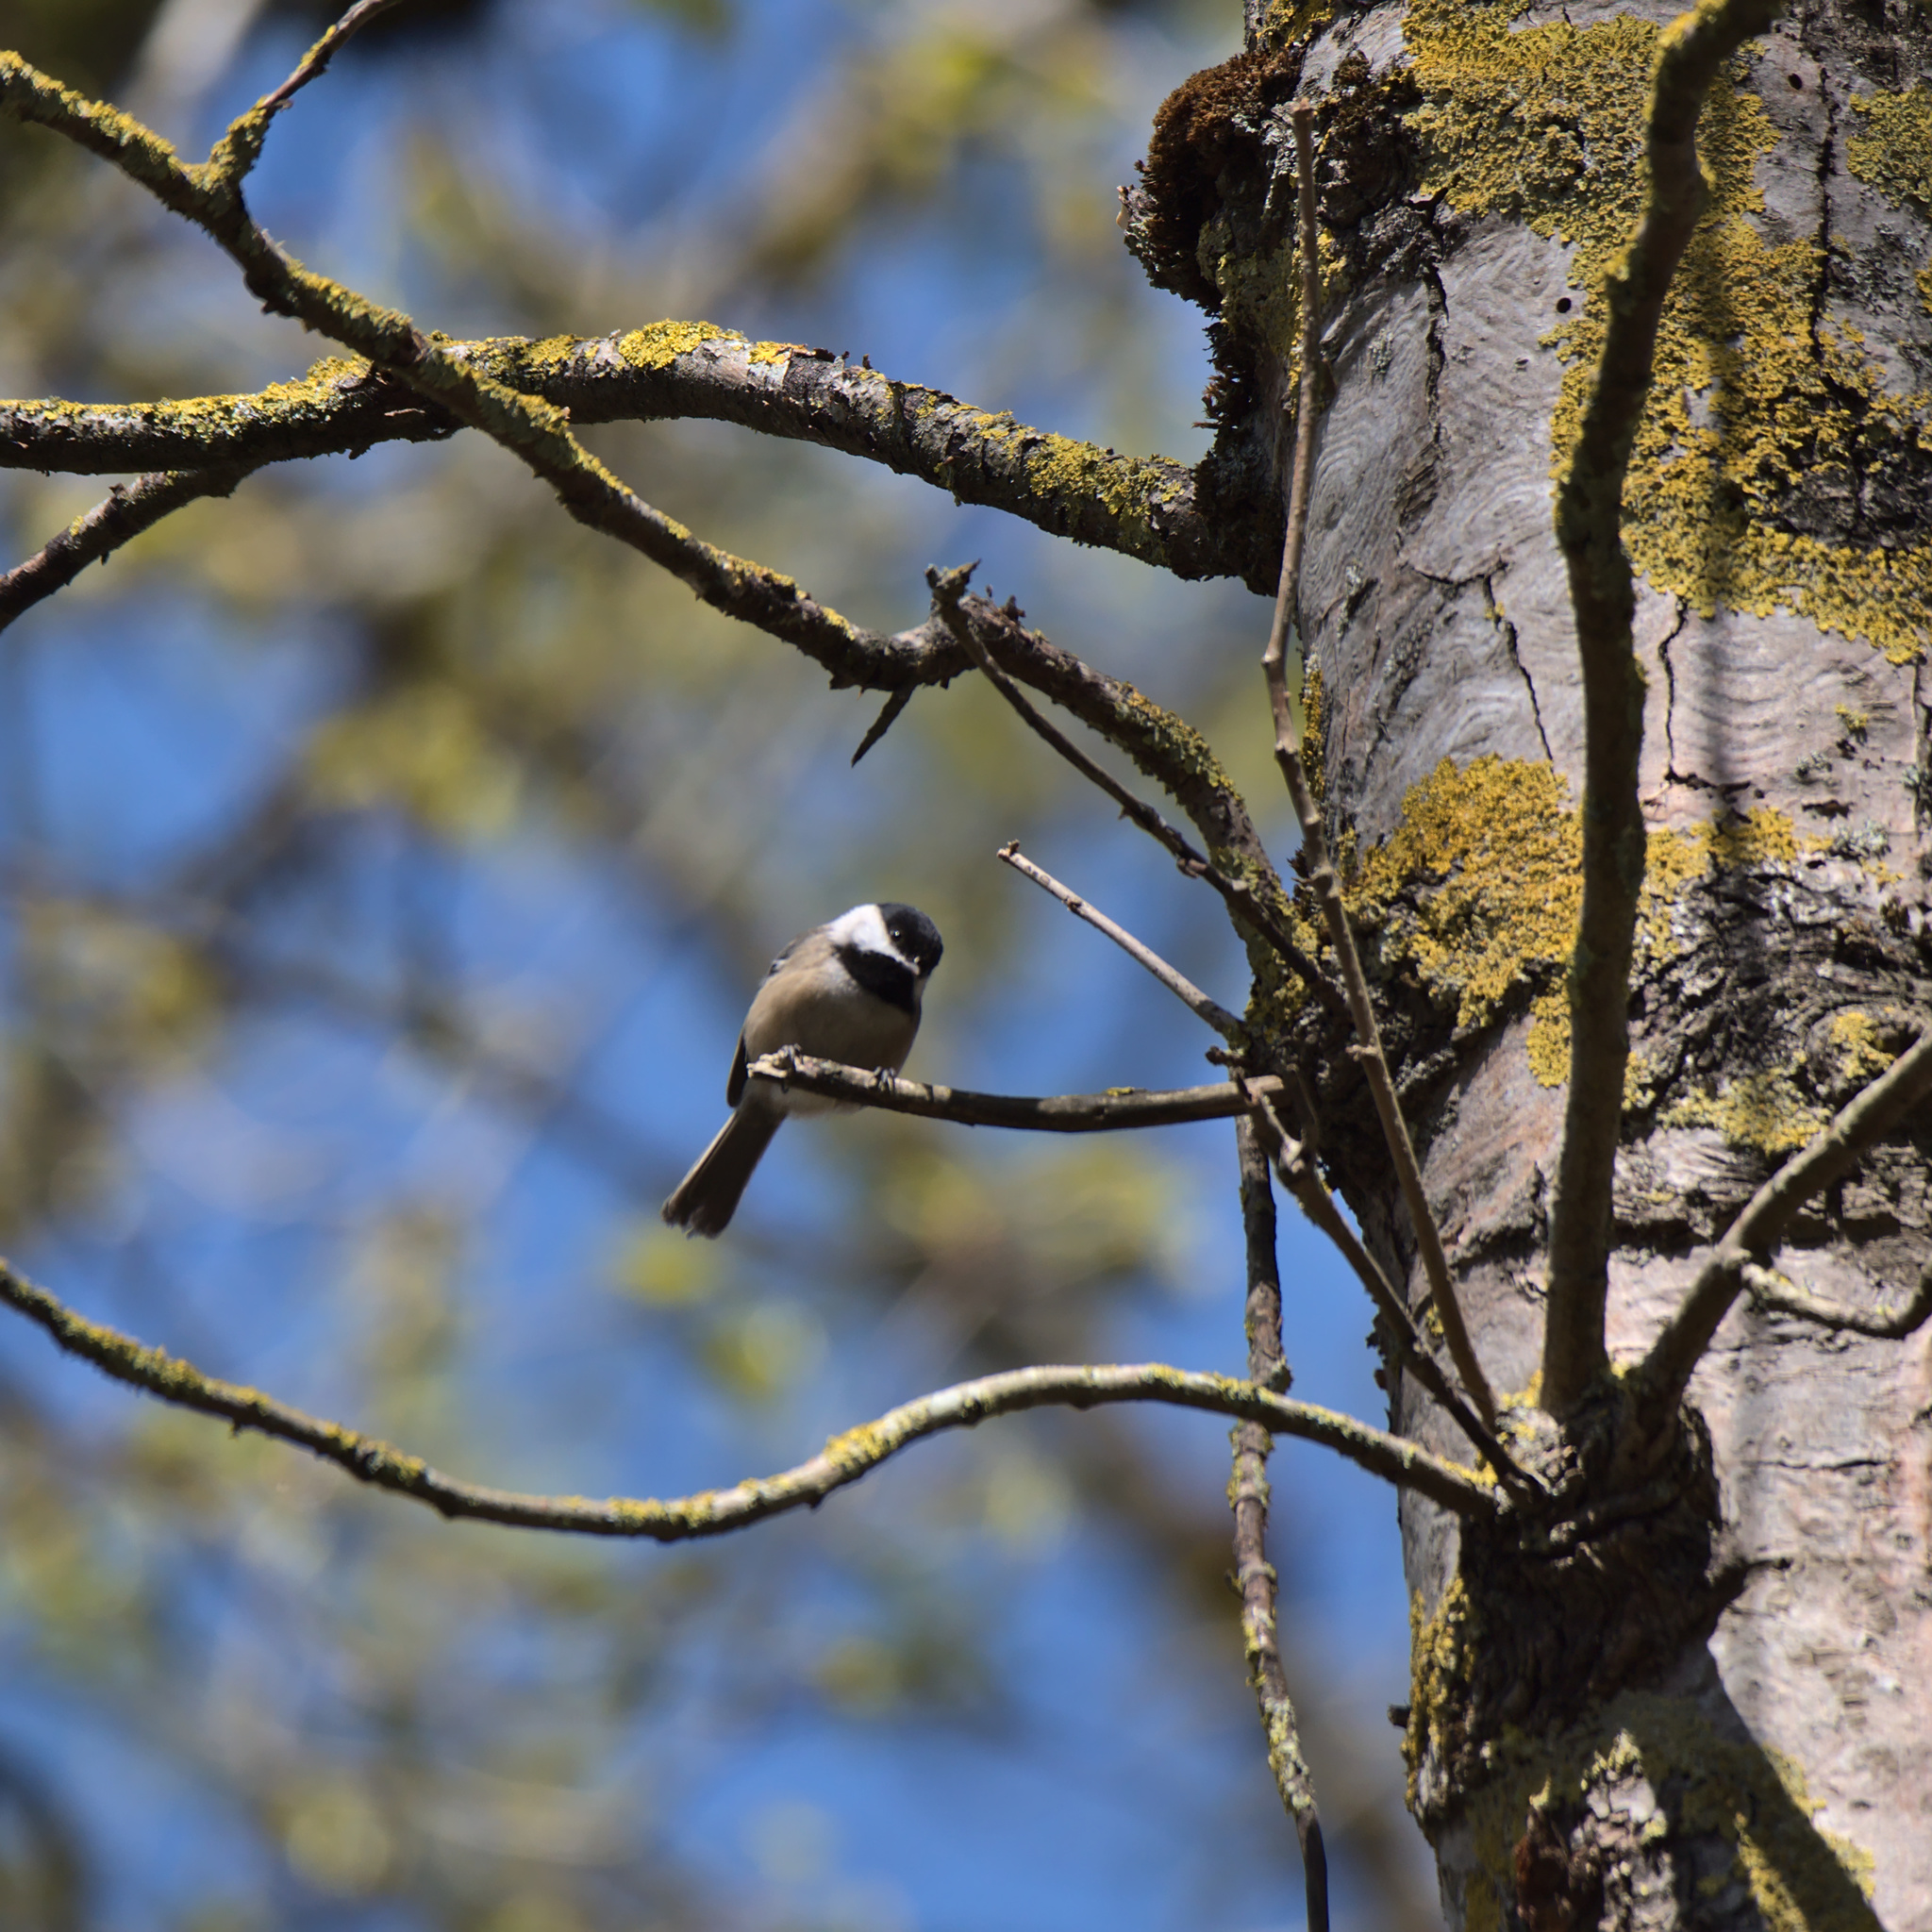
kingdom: Animalia
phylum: Chordata
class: Aves
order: Passeriformes
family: Paridae
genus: Poecile
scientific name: Poecile atricapillus
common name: Black-capped chickadee
